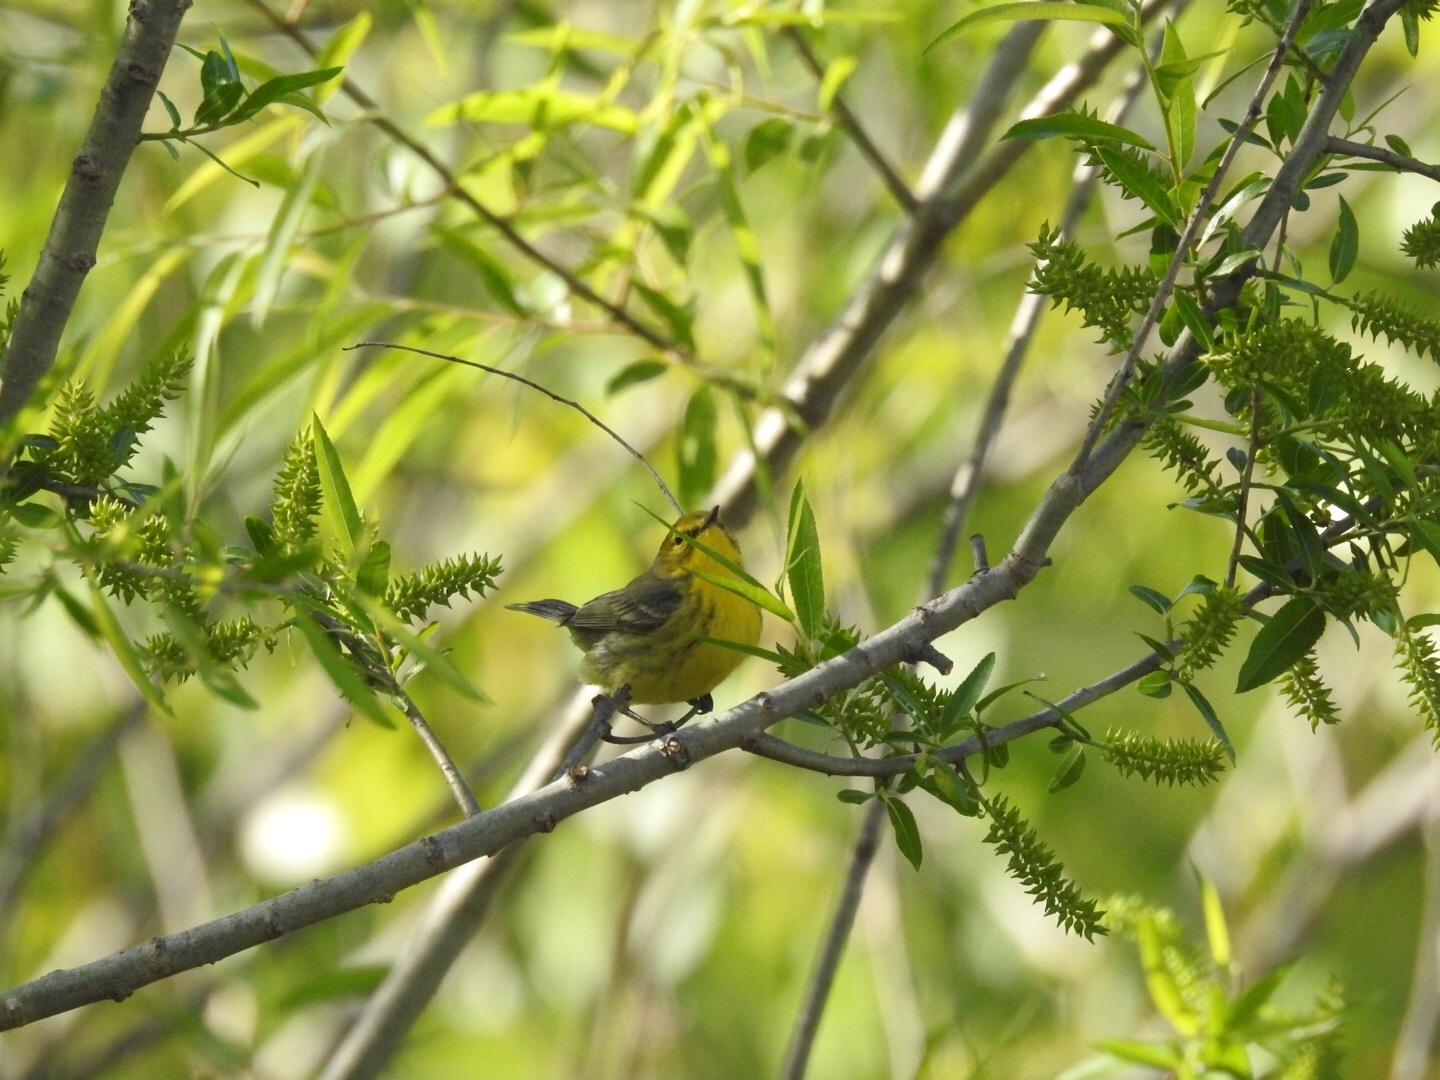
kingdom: Animalia
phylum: Chordata
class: Aves
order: Passeriformes
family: Parulidae
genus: Setophaga
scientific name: Setophaga discolor
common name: Prairie warbler
